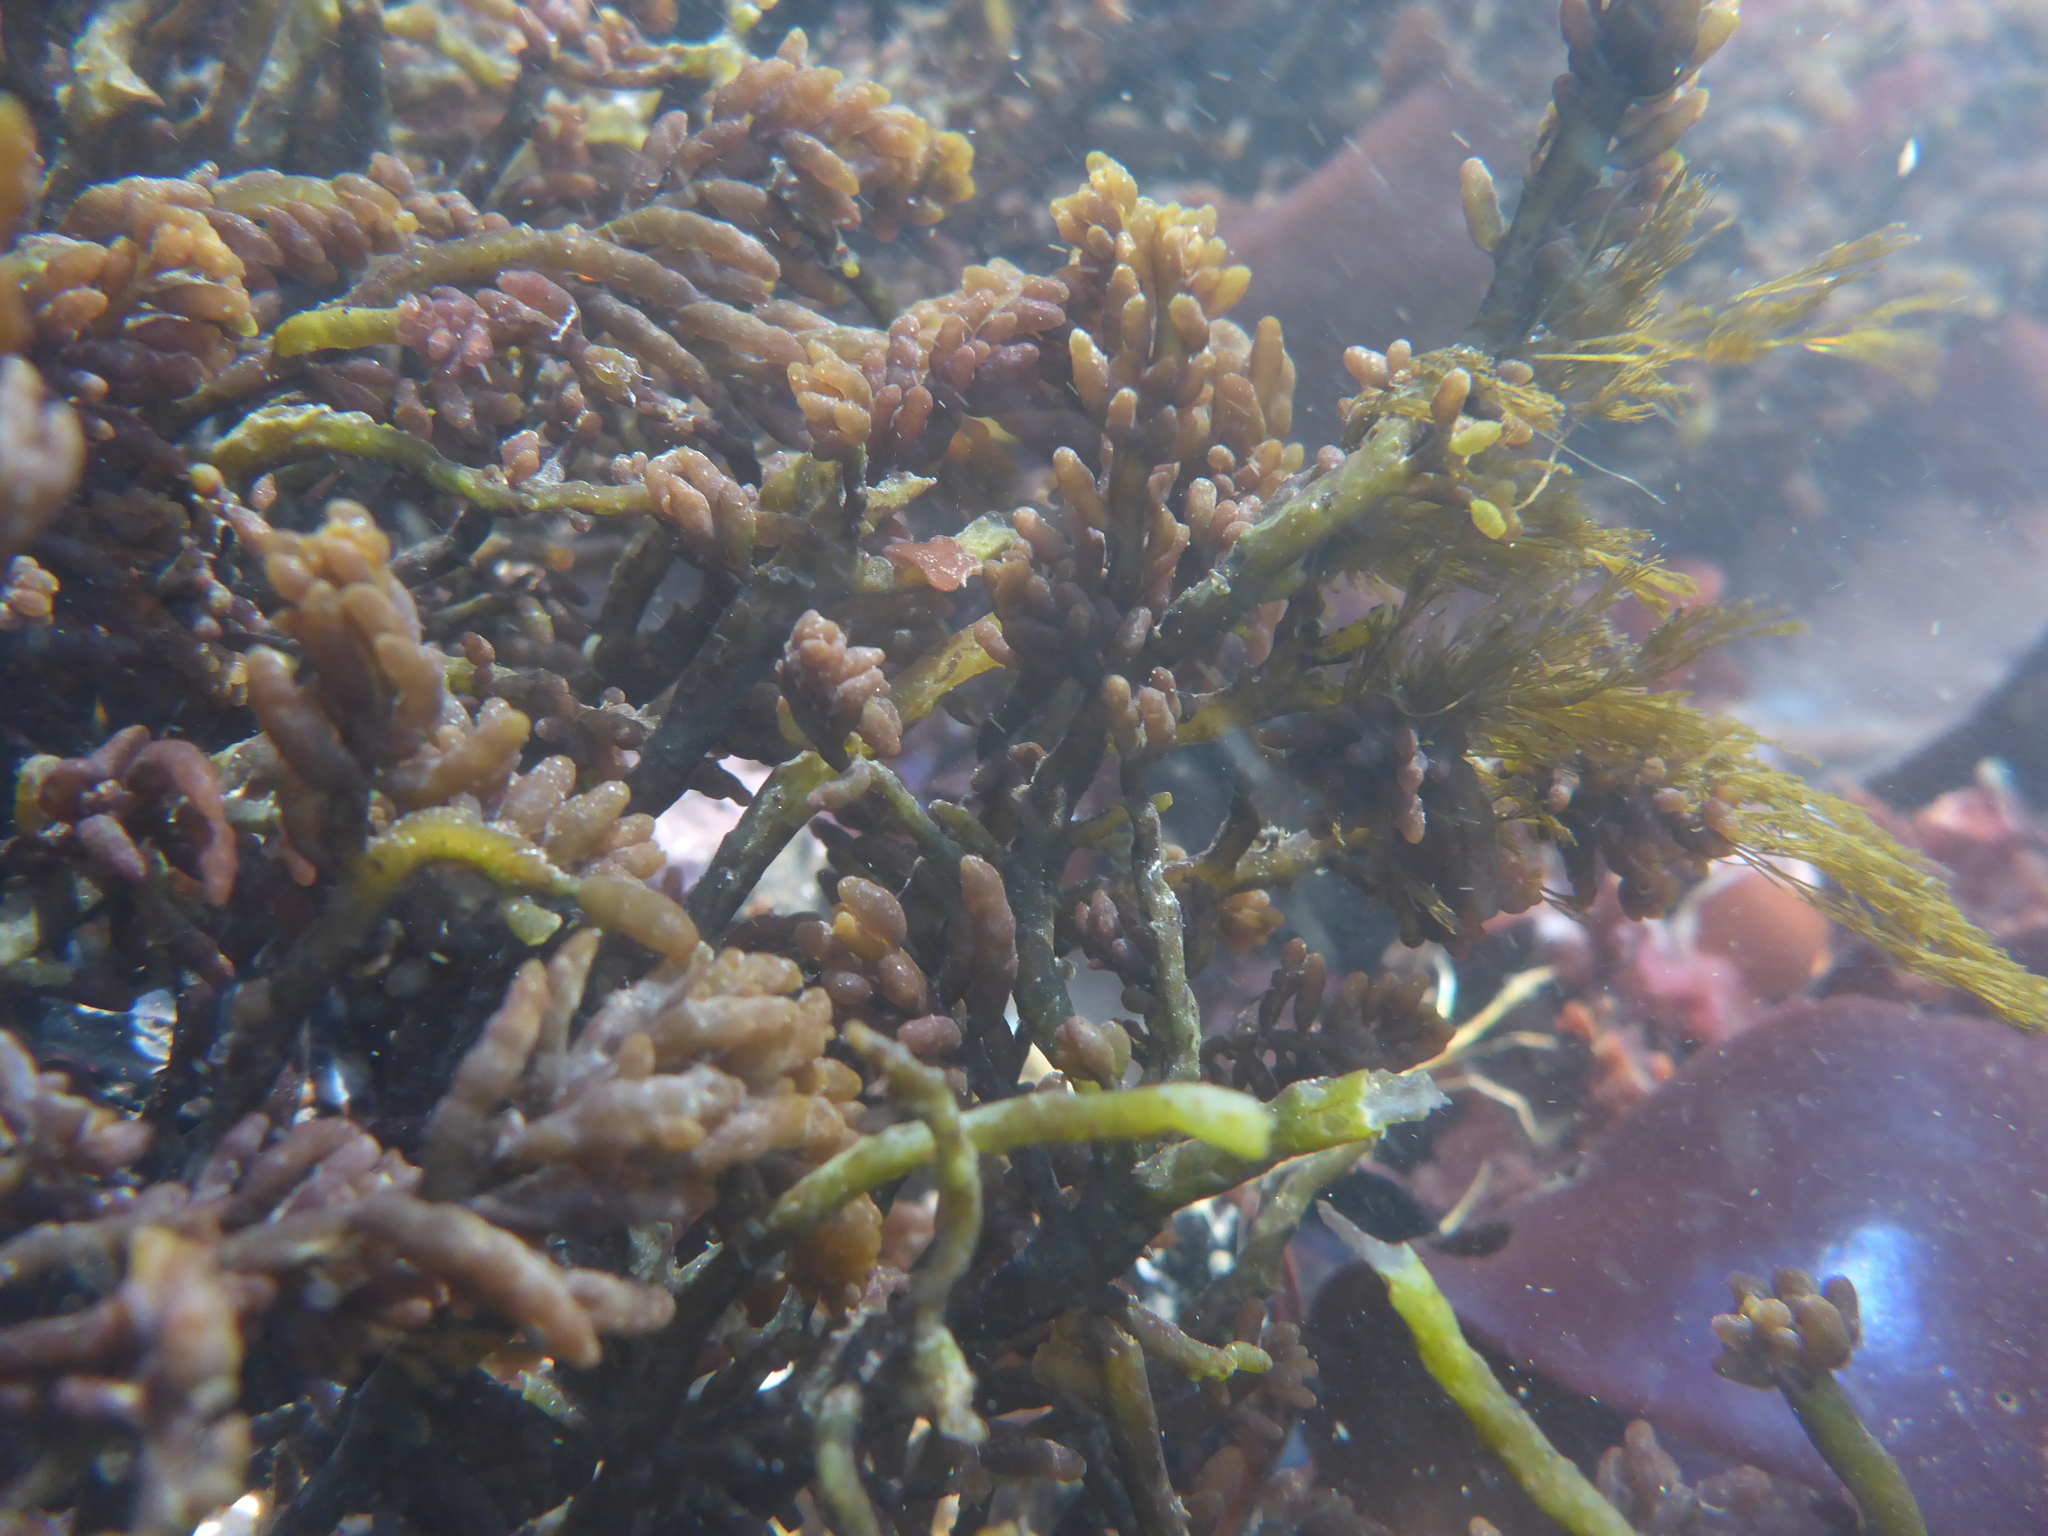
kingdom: Plantae
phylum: Rhodophyta
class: Florideophyceae
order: Rhodymeniales
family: Champiaceae
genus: Neogastroclonium
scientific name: Neogastroclonium subarticulatum
